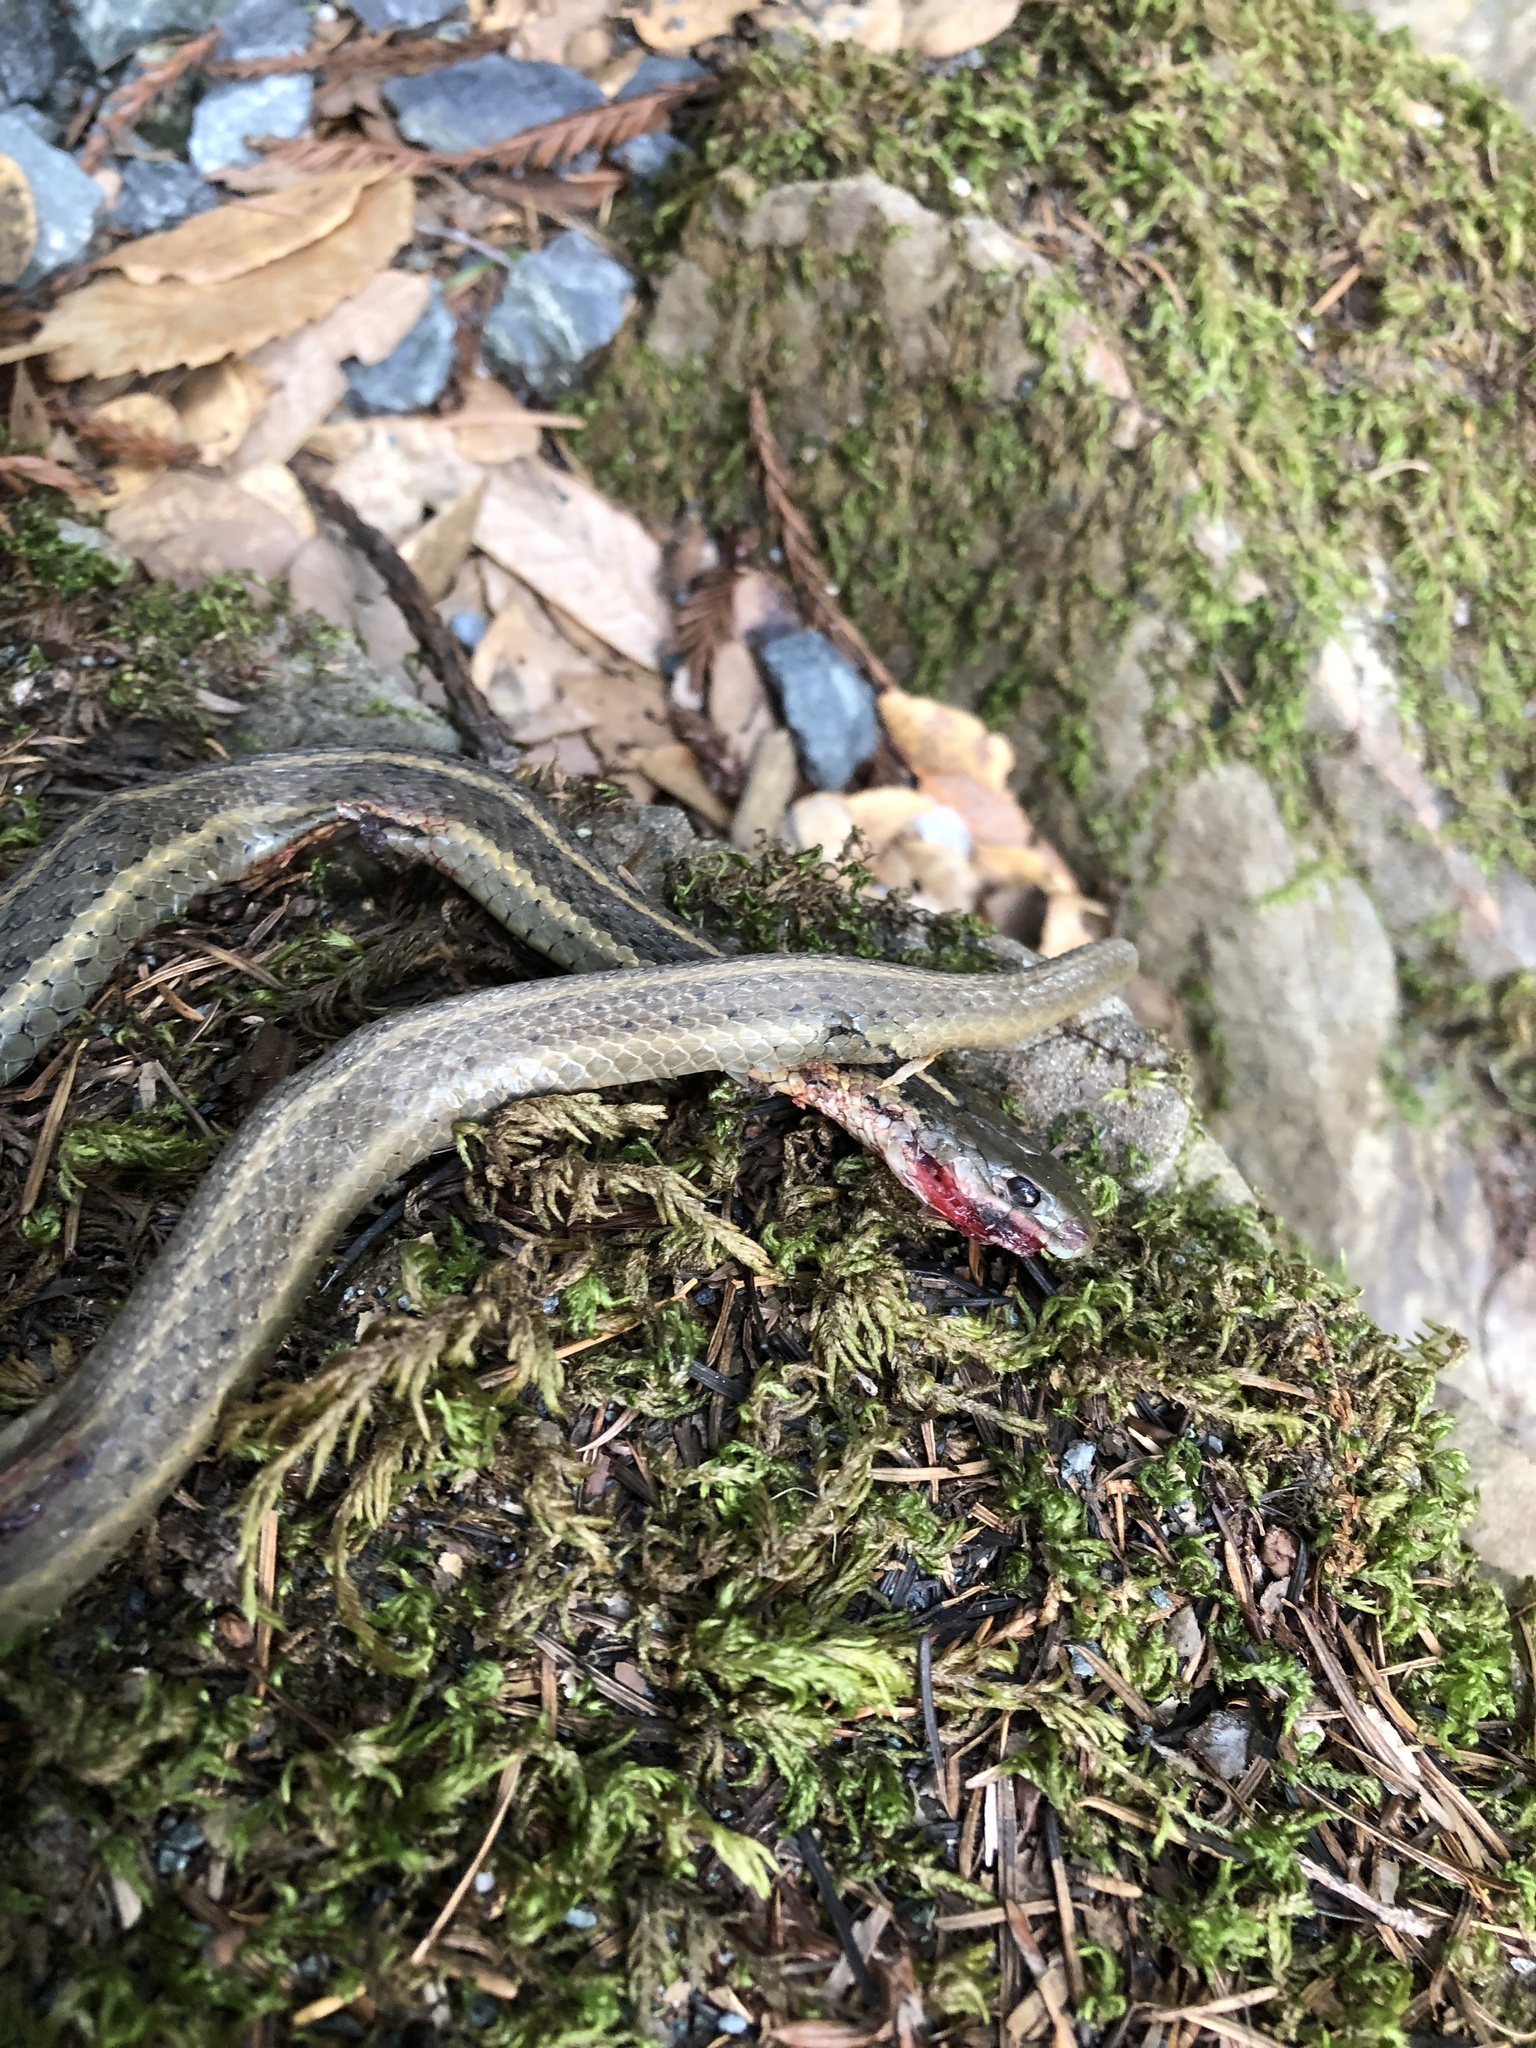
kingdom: Animalia
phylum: Chordata
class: Squamata
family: Colubridae
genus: Thamnophis
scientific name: Thamnophis atratus
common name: Pacific coast aquatic garter snake
